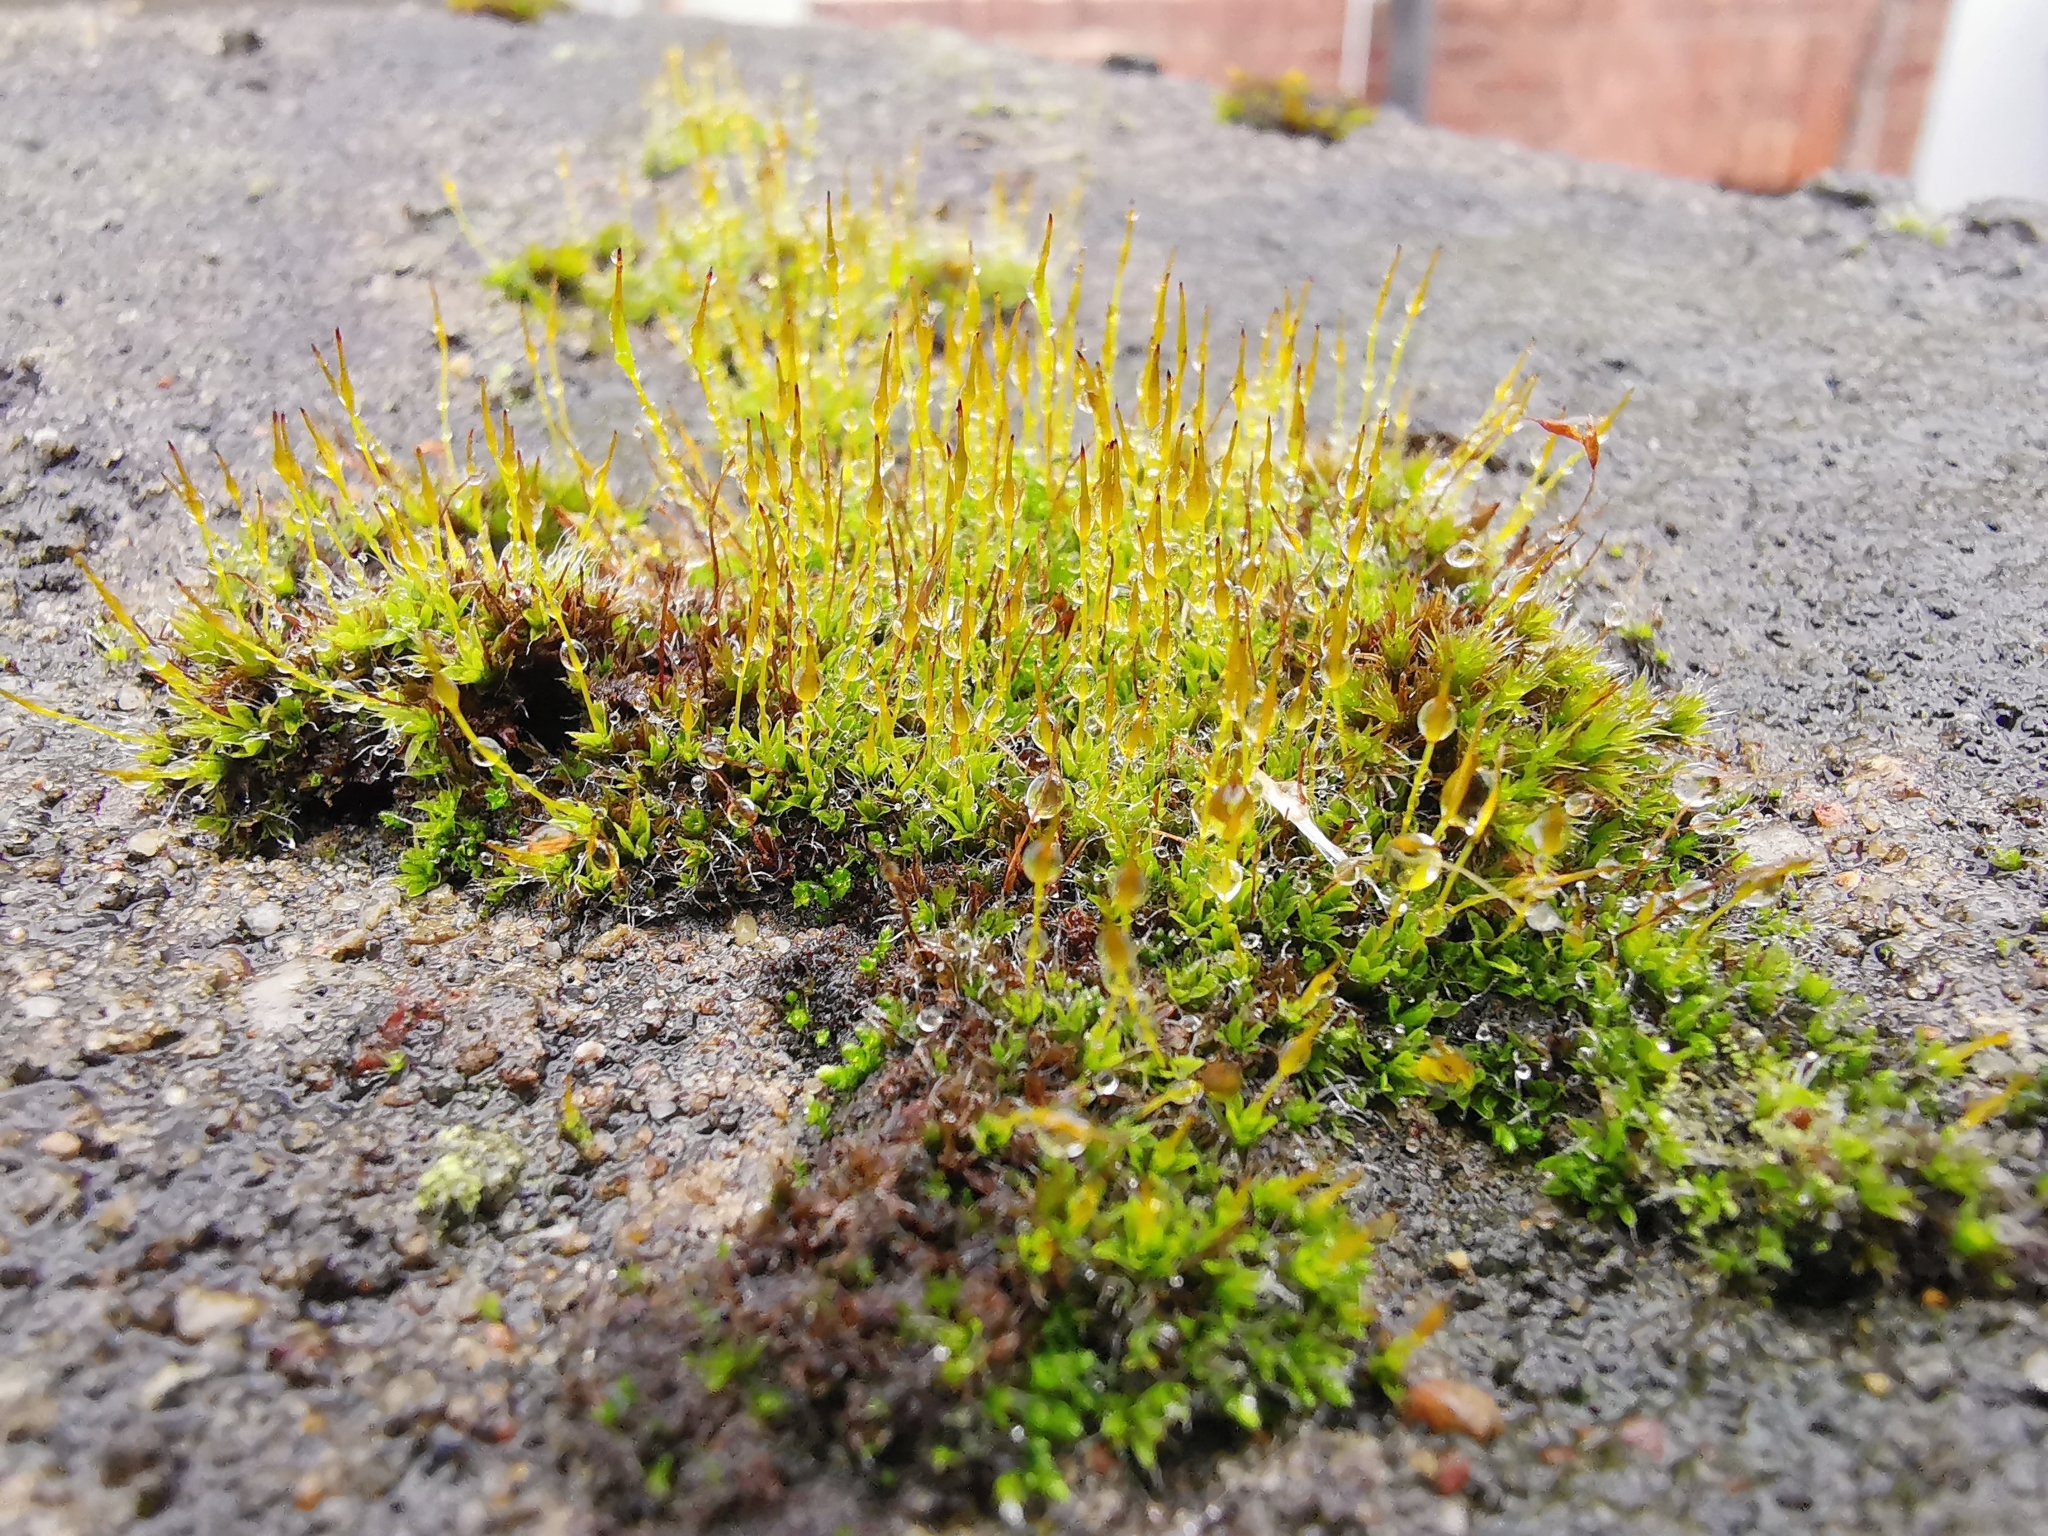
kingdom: Plantae
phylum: Bryophyta
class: Bryopsida
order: Pottiales
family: Pottiaceae
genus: Tortula
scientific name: Tortula muralis
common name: Wall screw-moss
